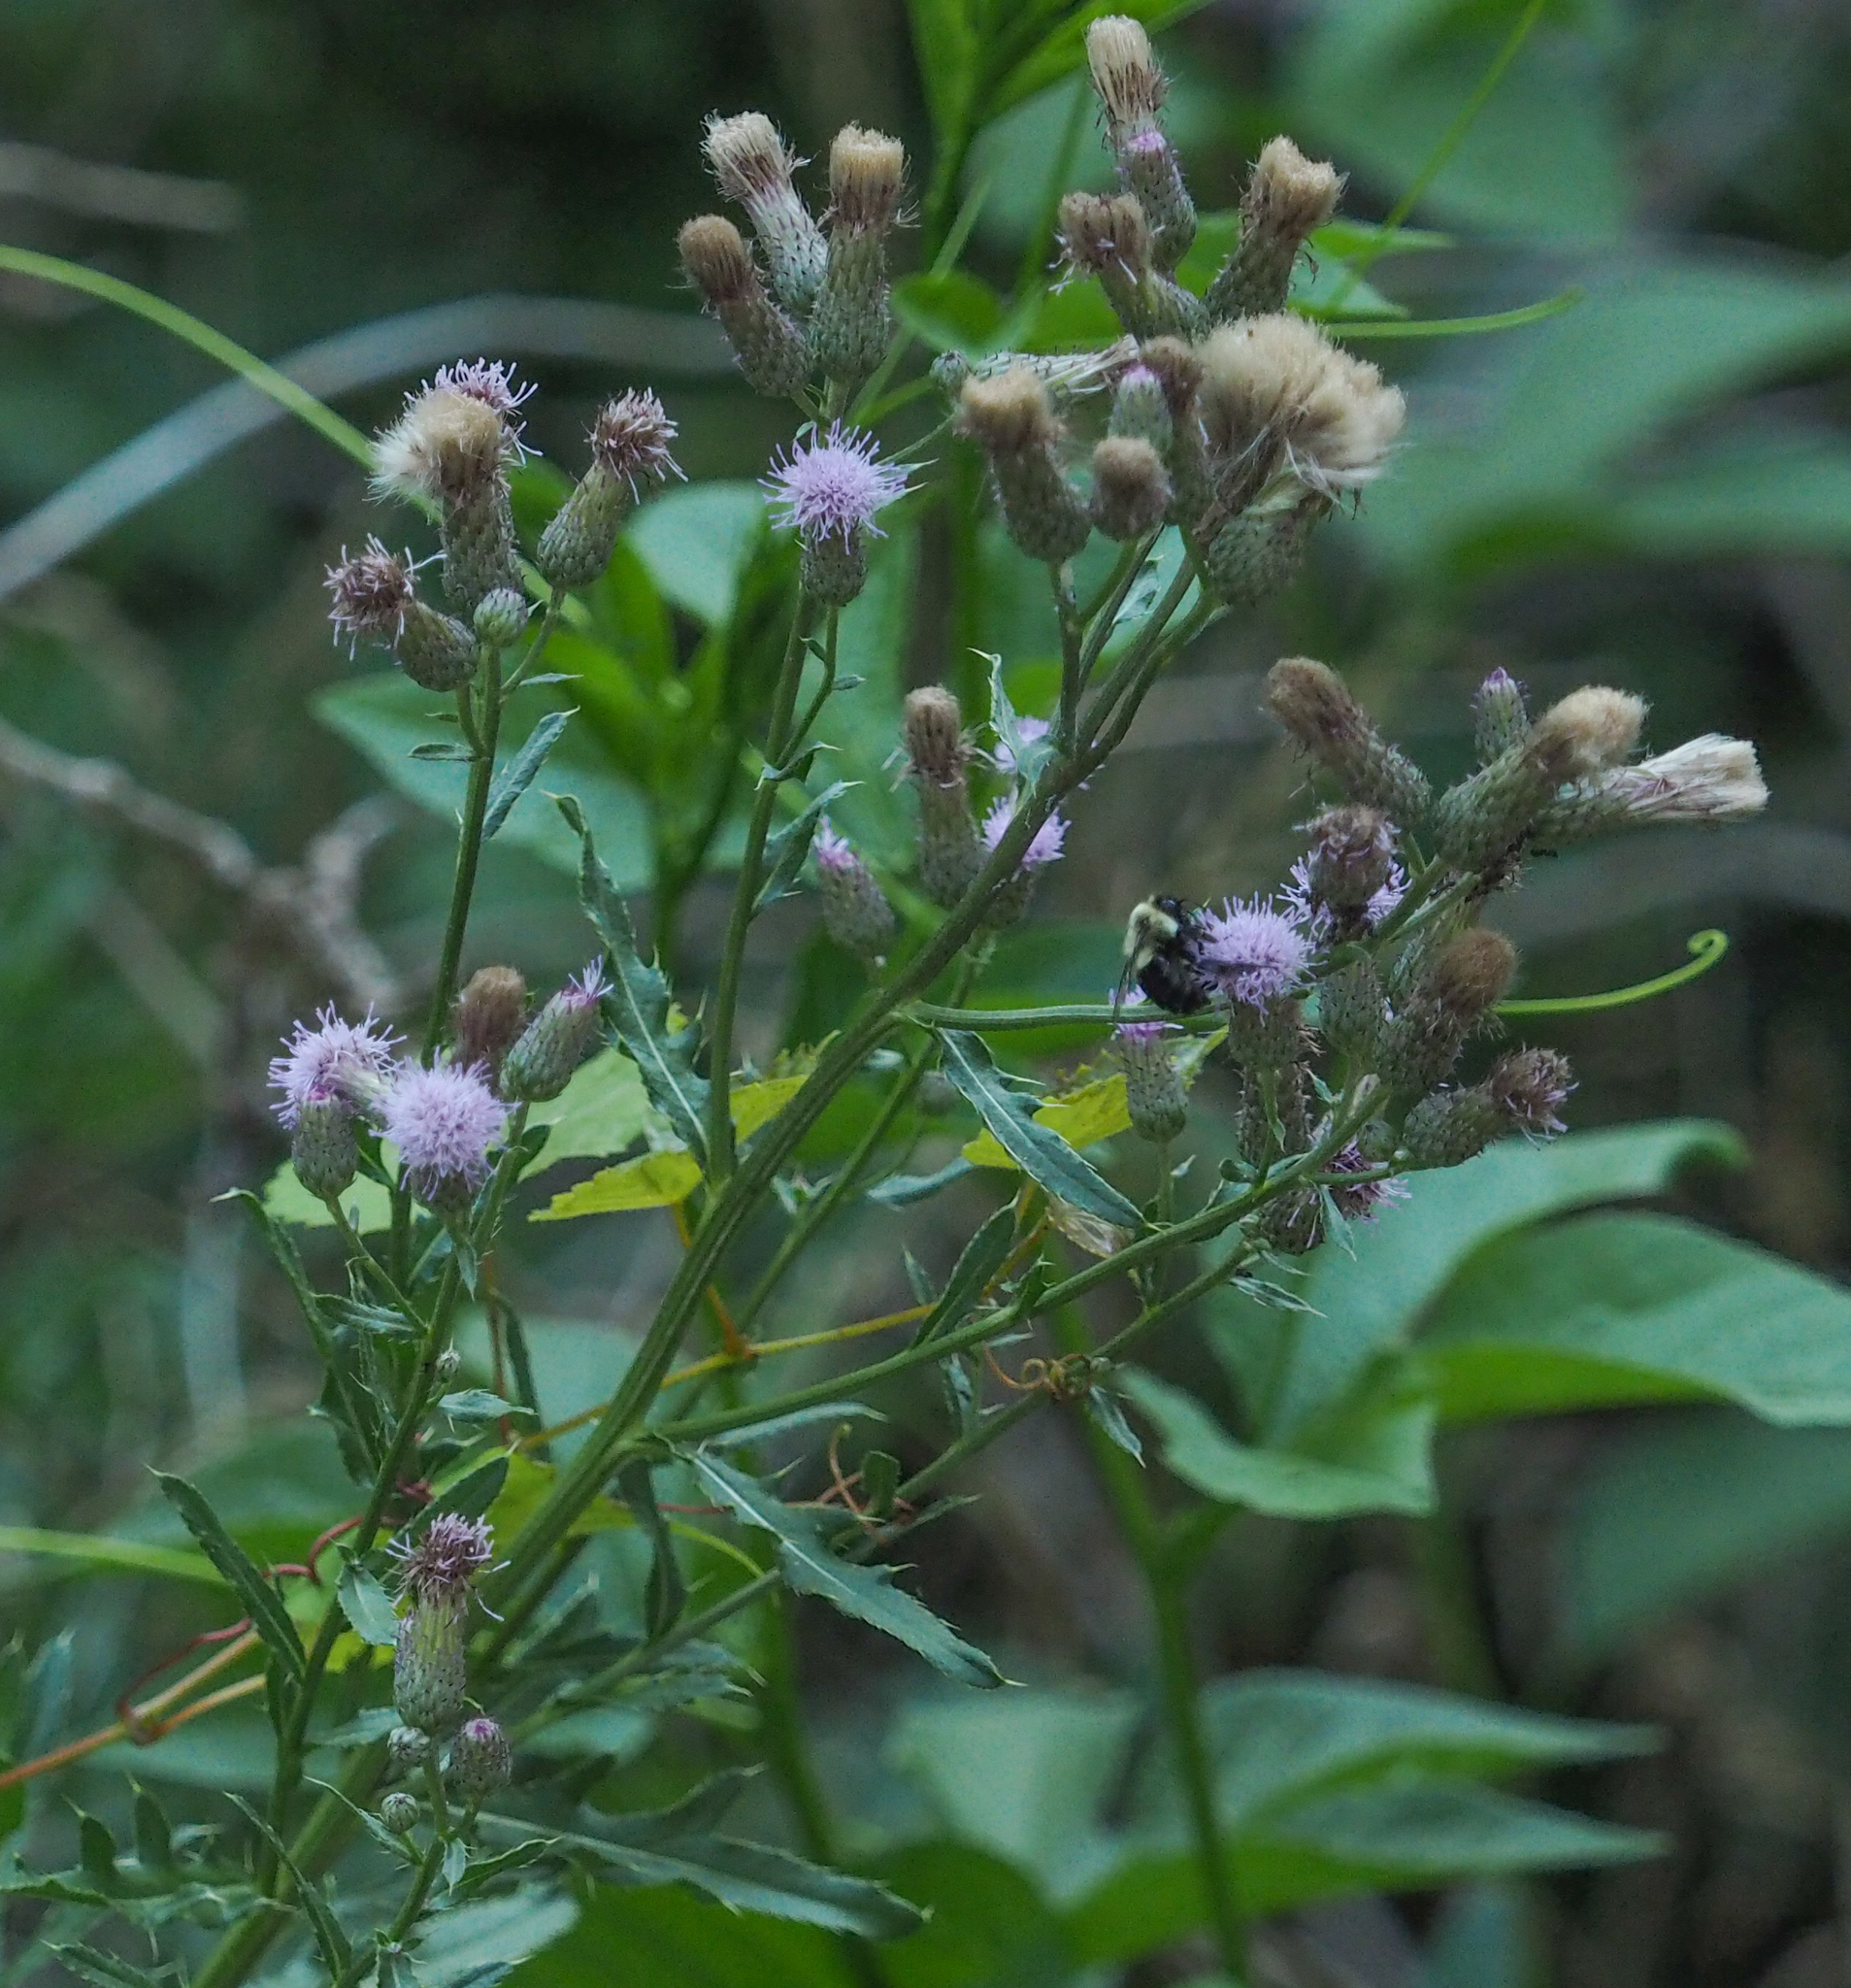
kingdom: Plantae
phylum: Tracheophyta
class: Magnoliopsida
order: Asterales
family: Asteraceae
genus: Cirsium
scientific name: Cirsium arvense
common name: Creeping thistle
